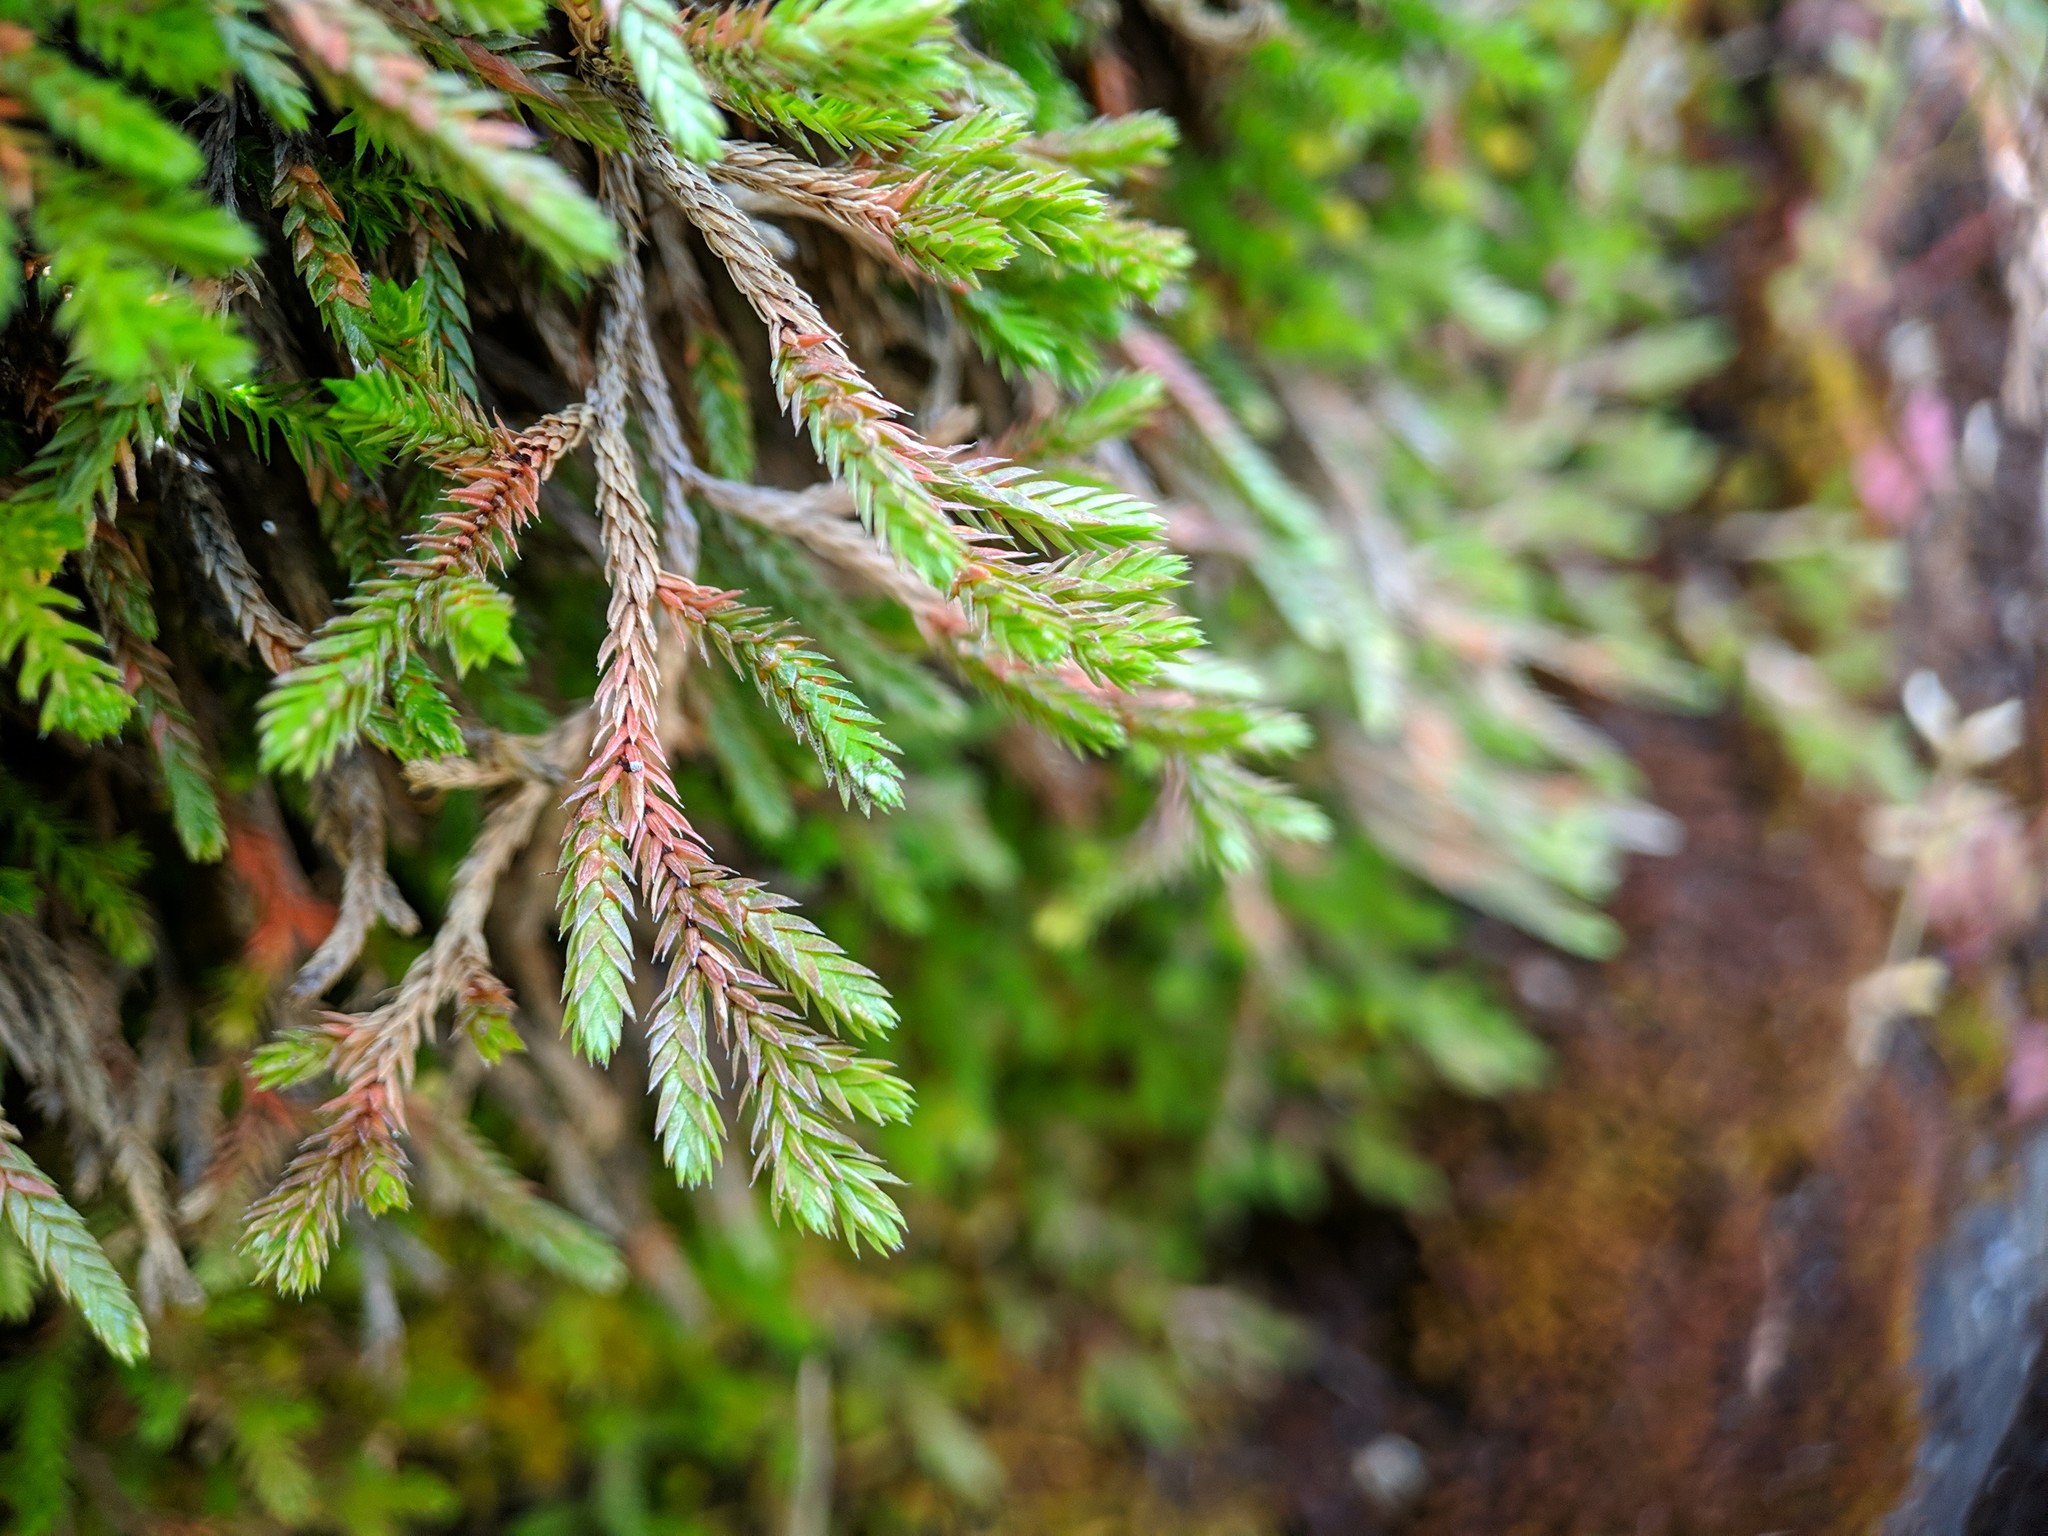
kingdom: Plantae
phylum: Tracheophyta
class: Lycopodiopsida
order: Selaginellales
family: Selaginellaceae
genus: Selaginella
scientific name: Selaginella wallacei
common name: Wallace's selaginella
